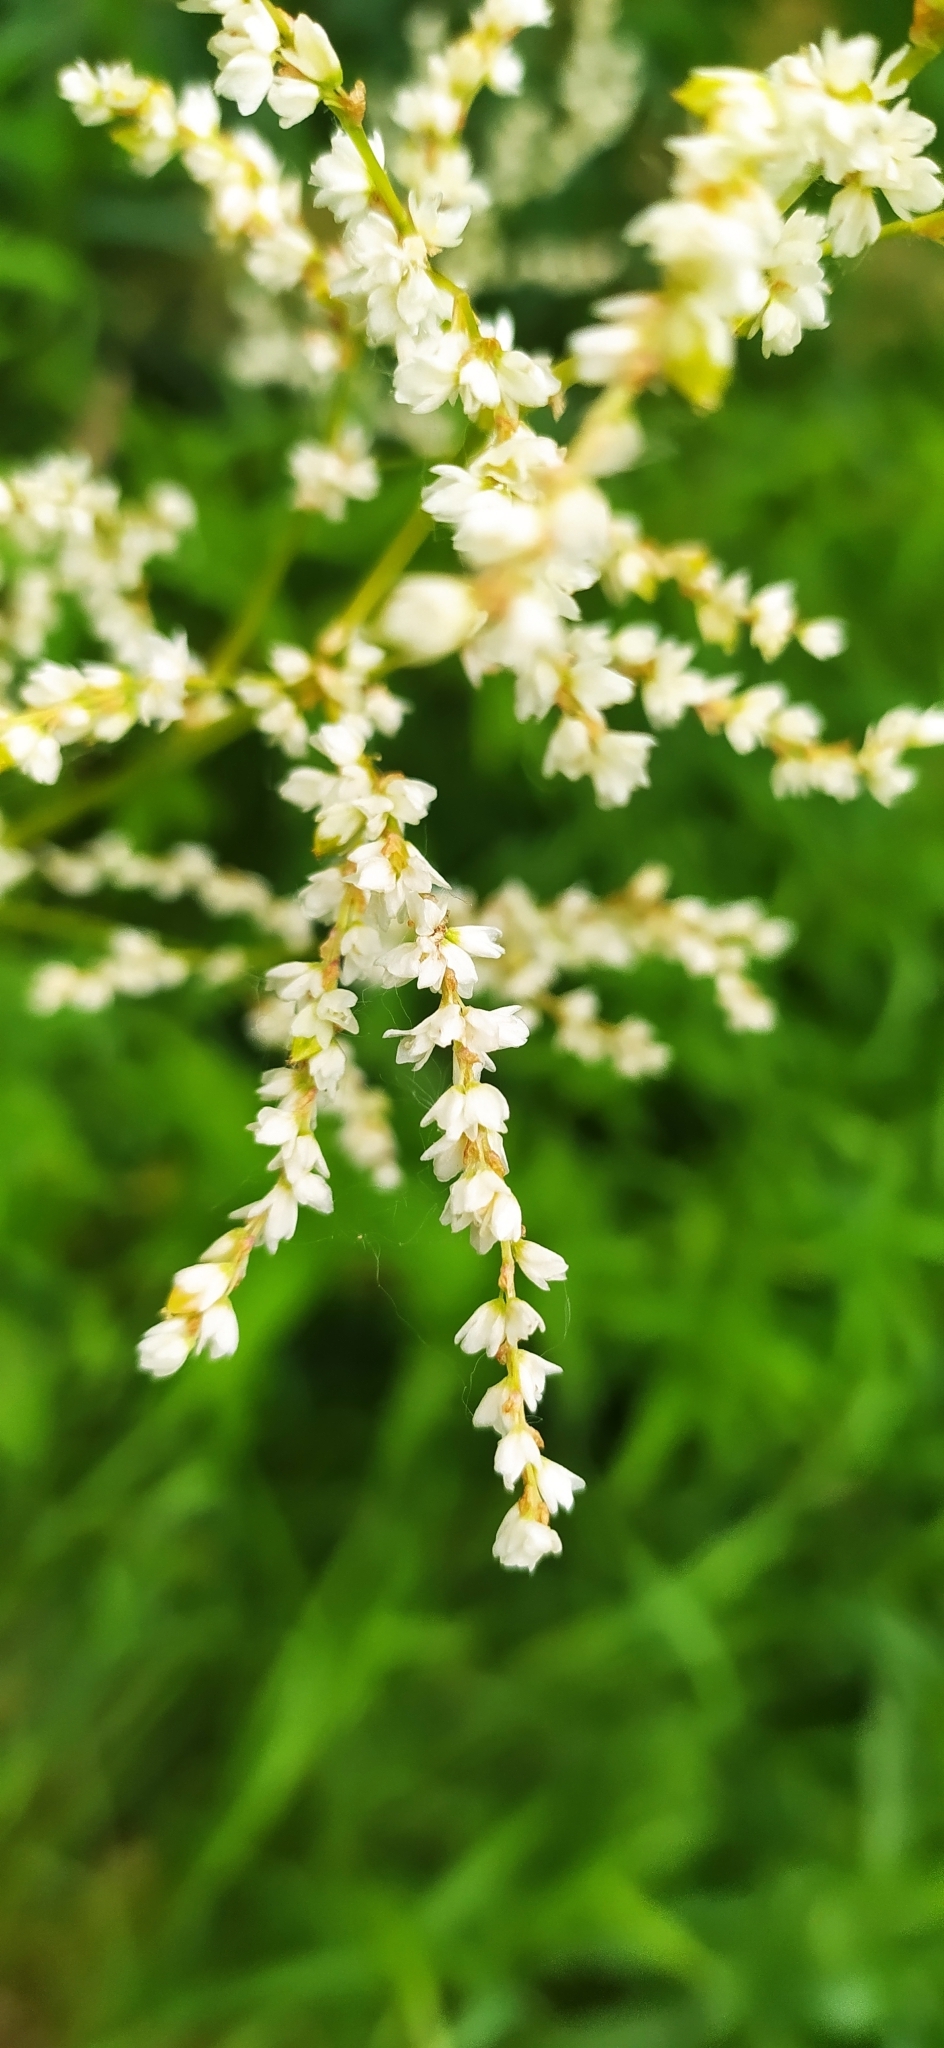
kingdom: Plantae
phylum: Tracheophyta
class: Magnoliopsida
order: Caryophyllales
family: Polygonaceae
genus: Koenigia
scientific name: Koenigia alpina
